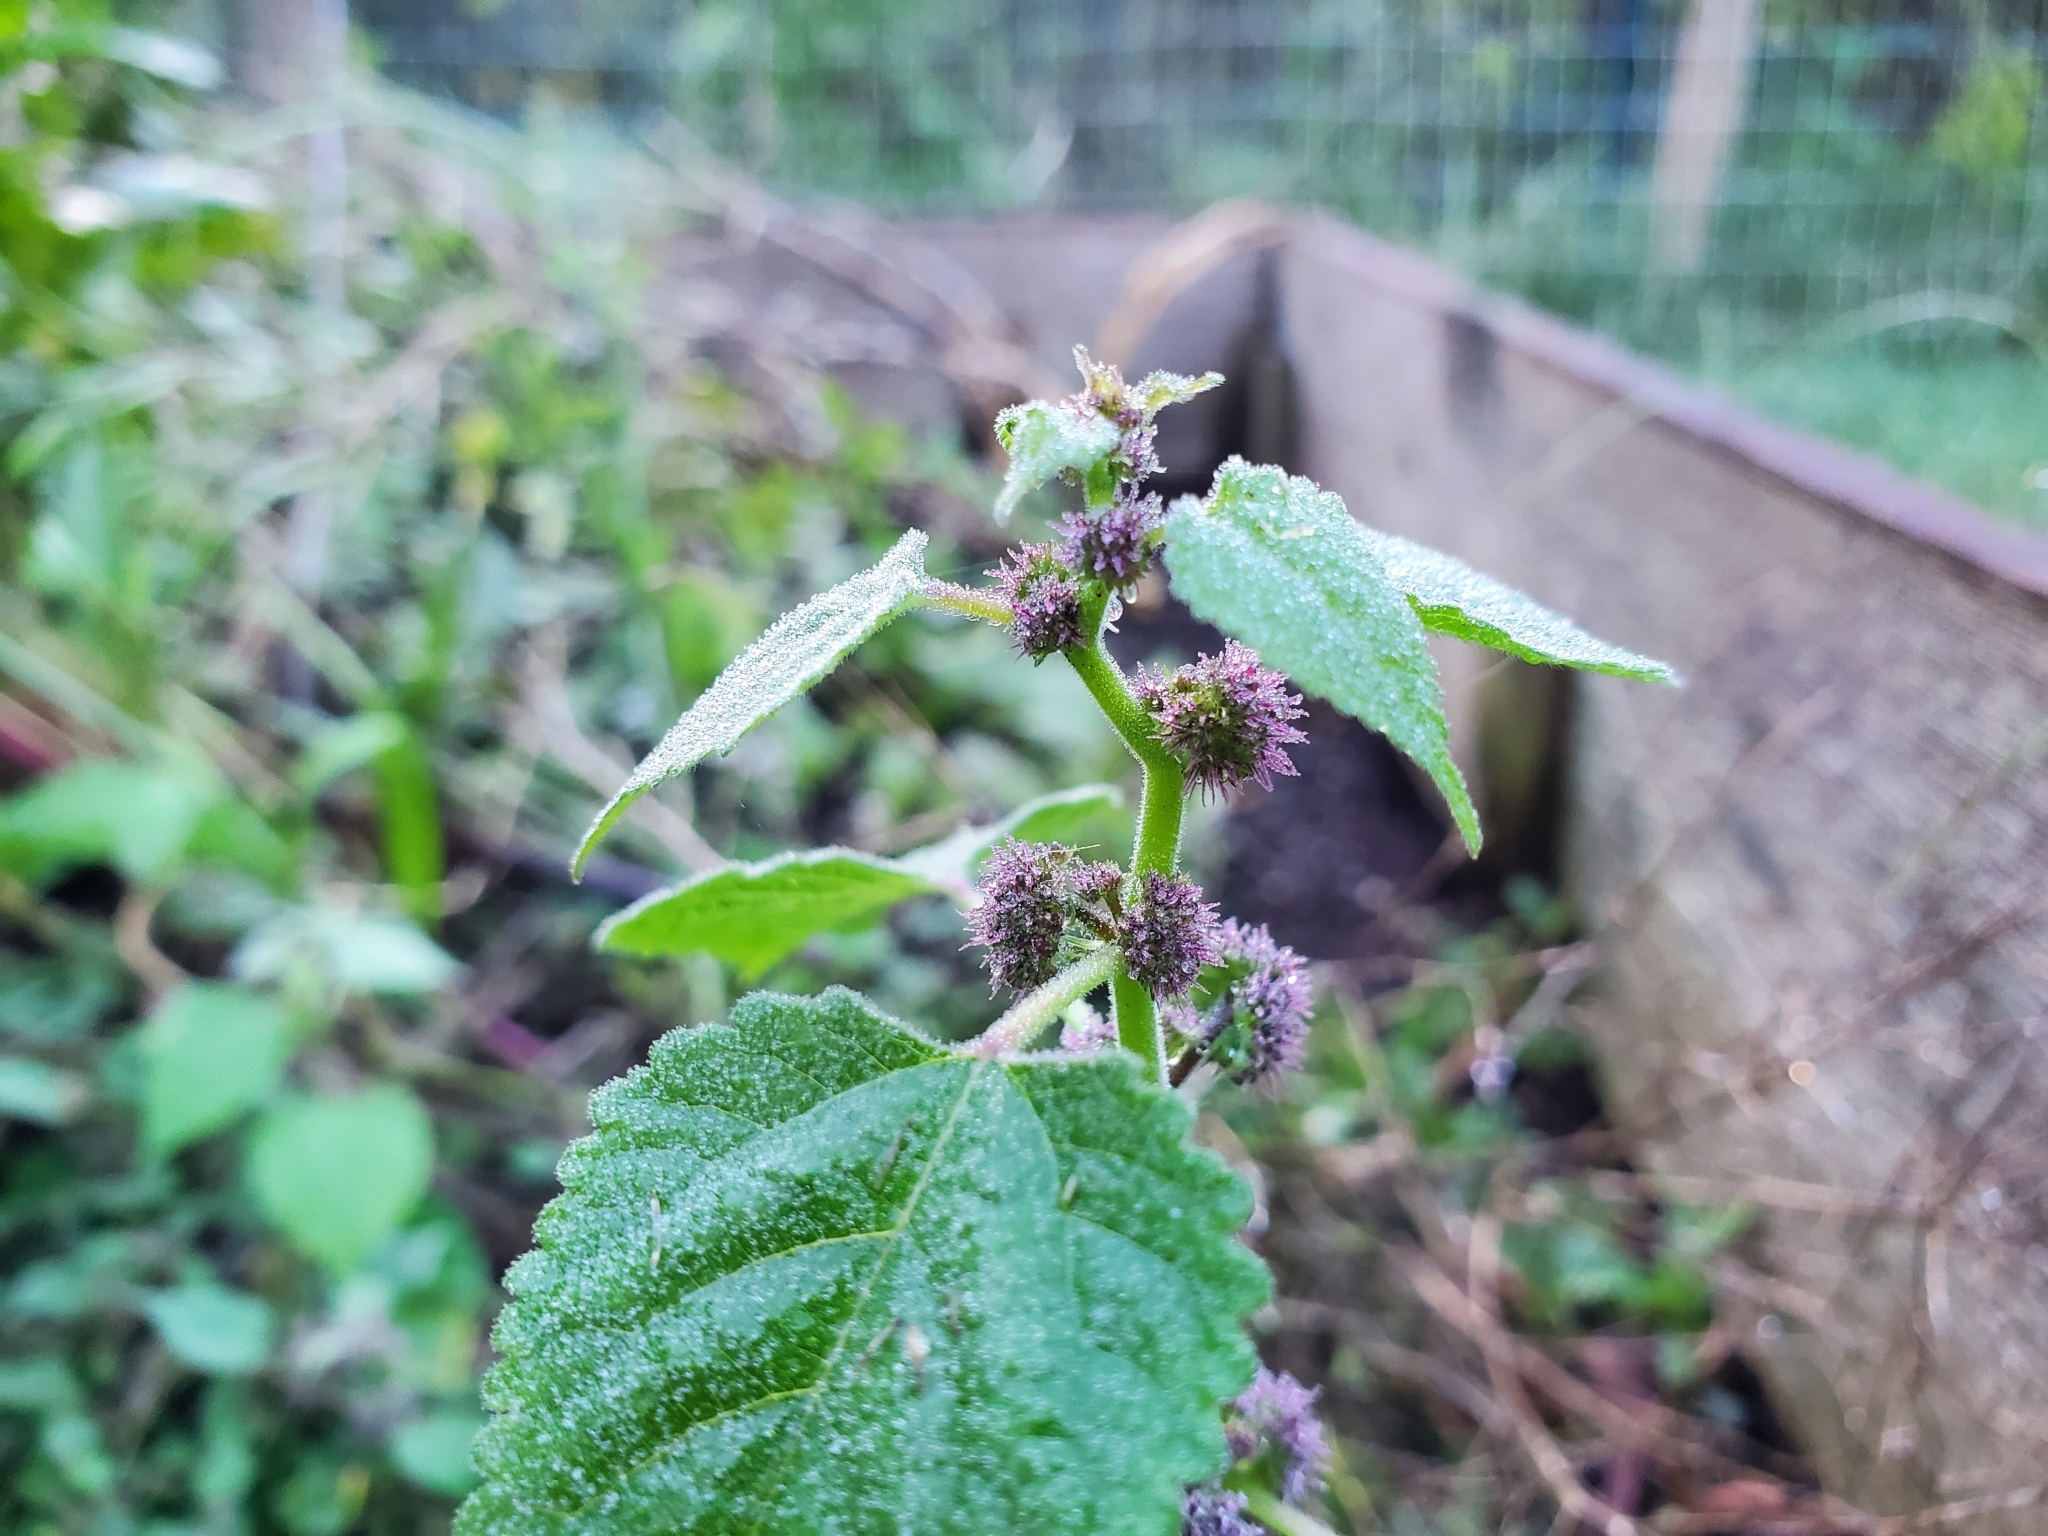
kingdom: Plantae
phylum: Tracheophyta
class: Magnoliopsida
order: Rosales
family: Moraceae
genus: Fatoua
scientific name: Fatoua villosa
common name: Hairy crabweed
